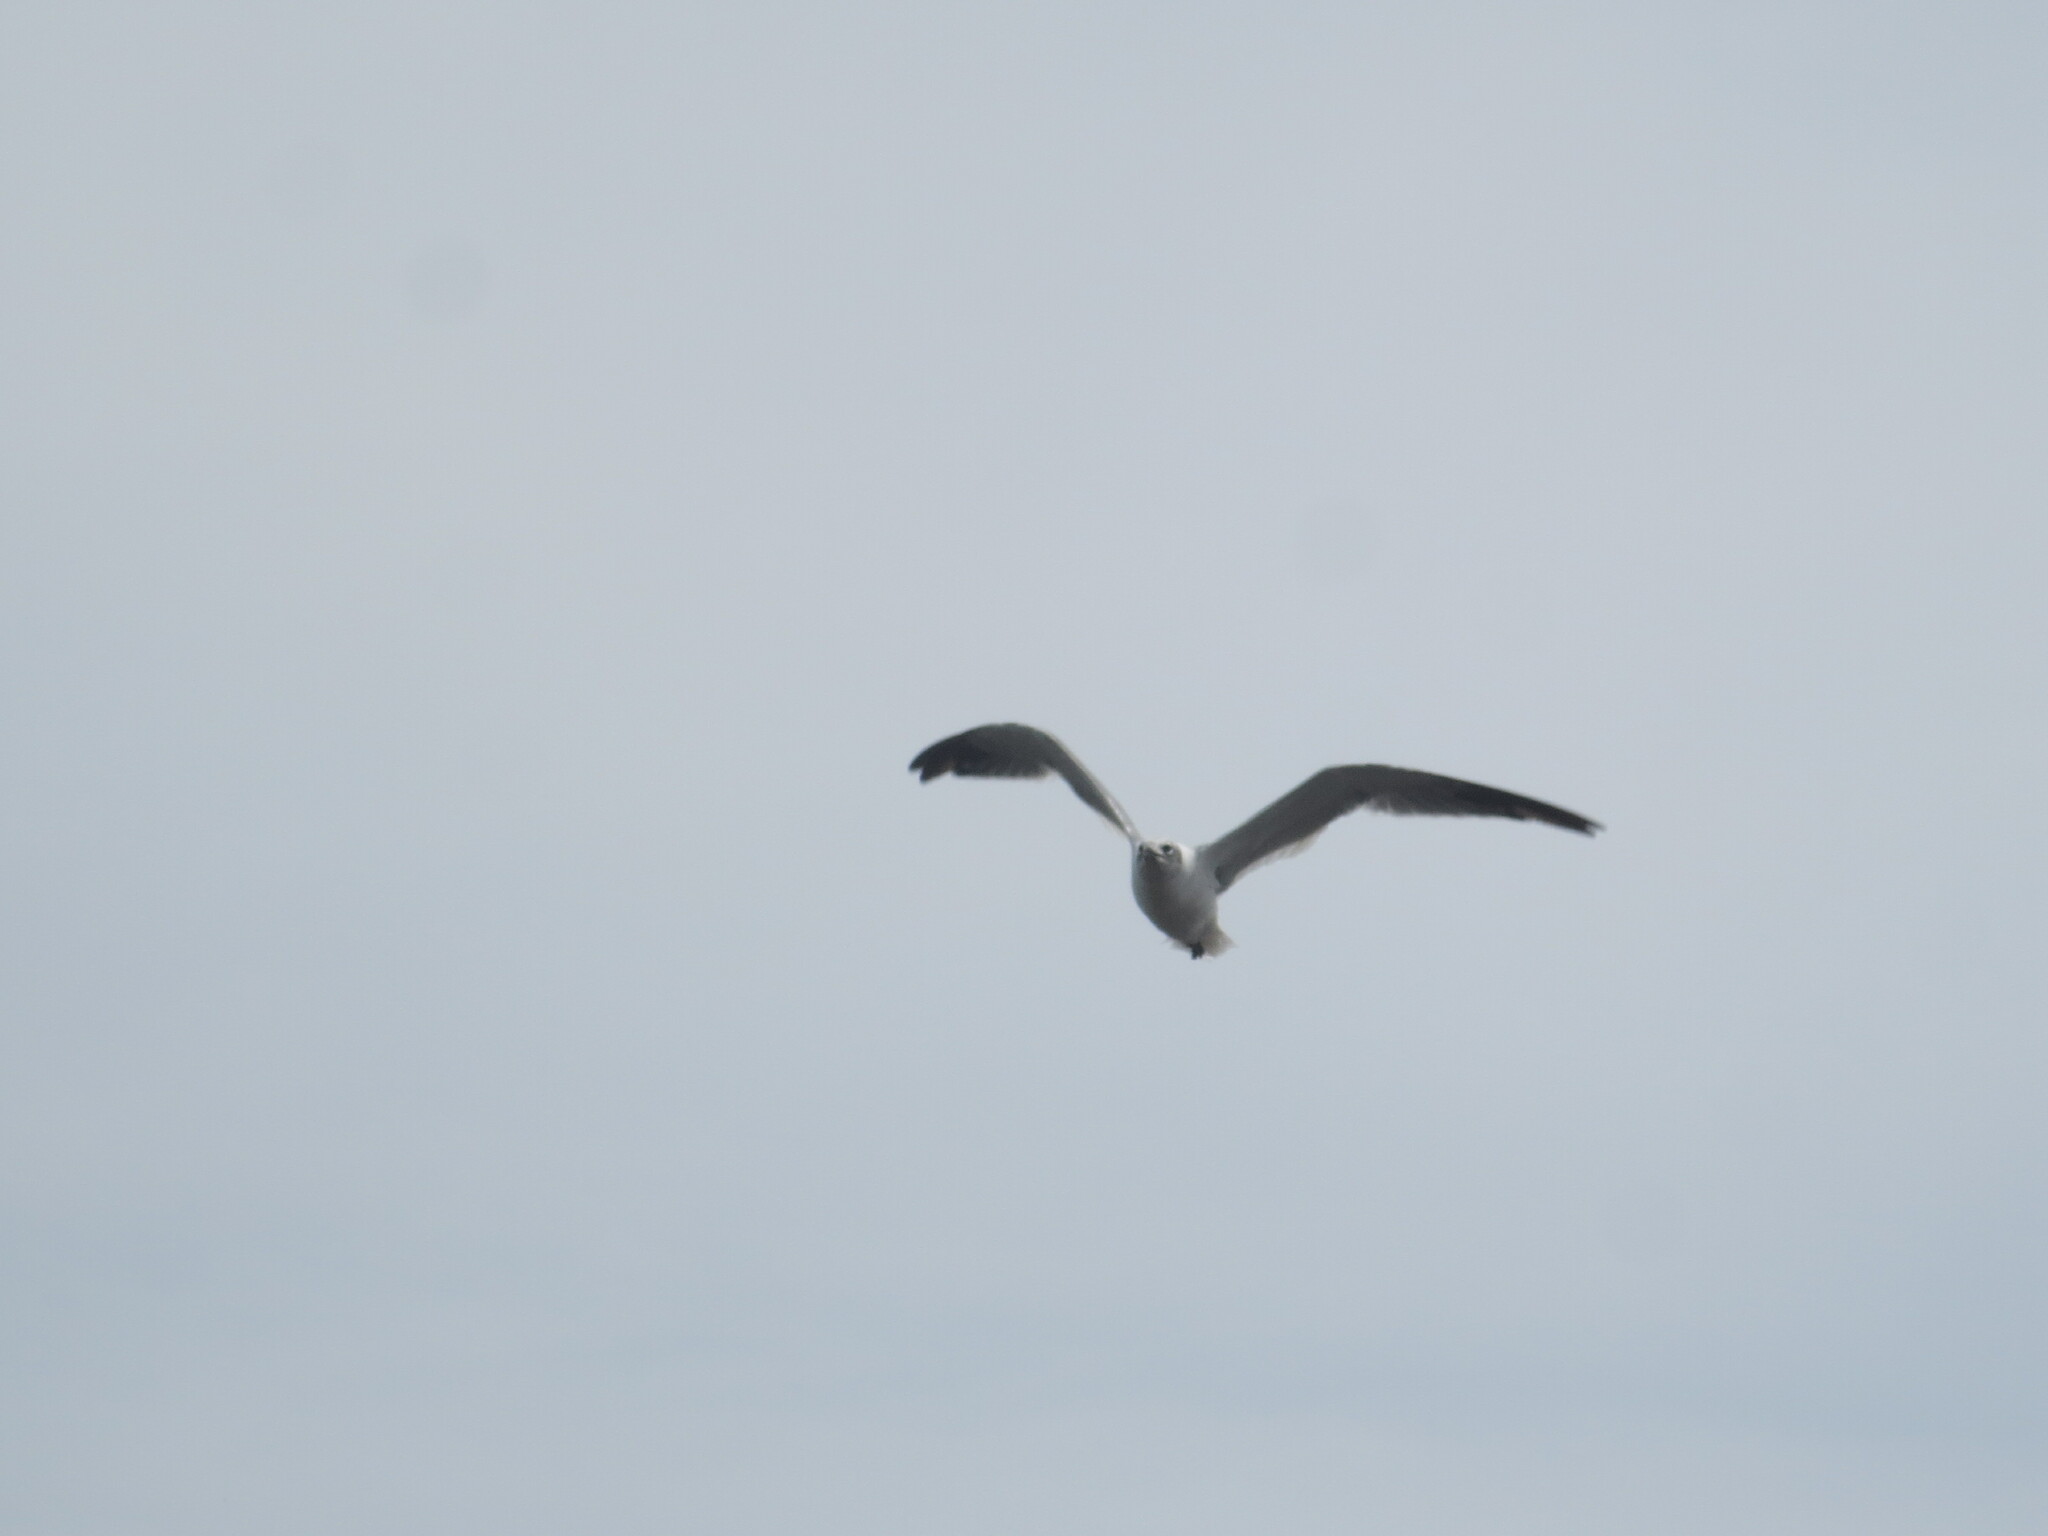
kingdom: Animalia
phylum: Chordata
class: Aves
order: Charadriiformes
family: Laridae
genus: Leucophaeus
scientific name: Leucophaeus atricilla
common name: Laughing gull
